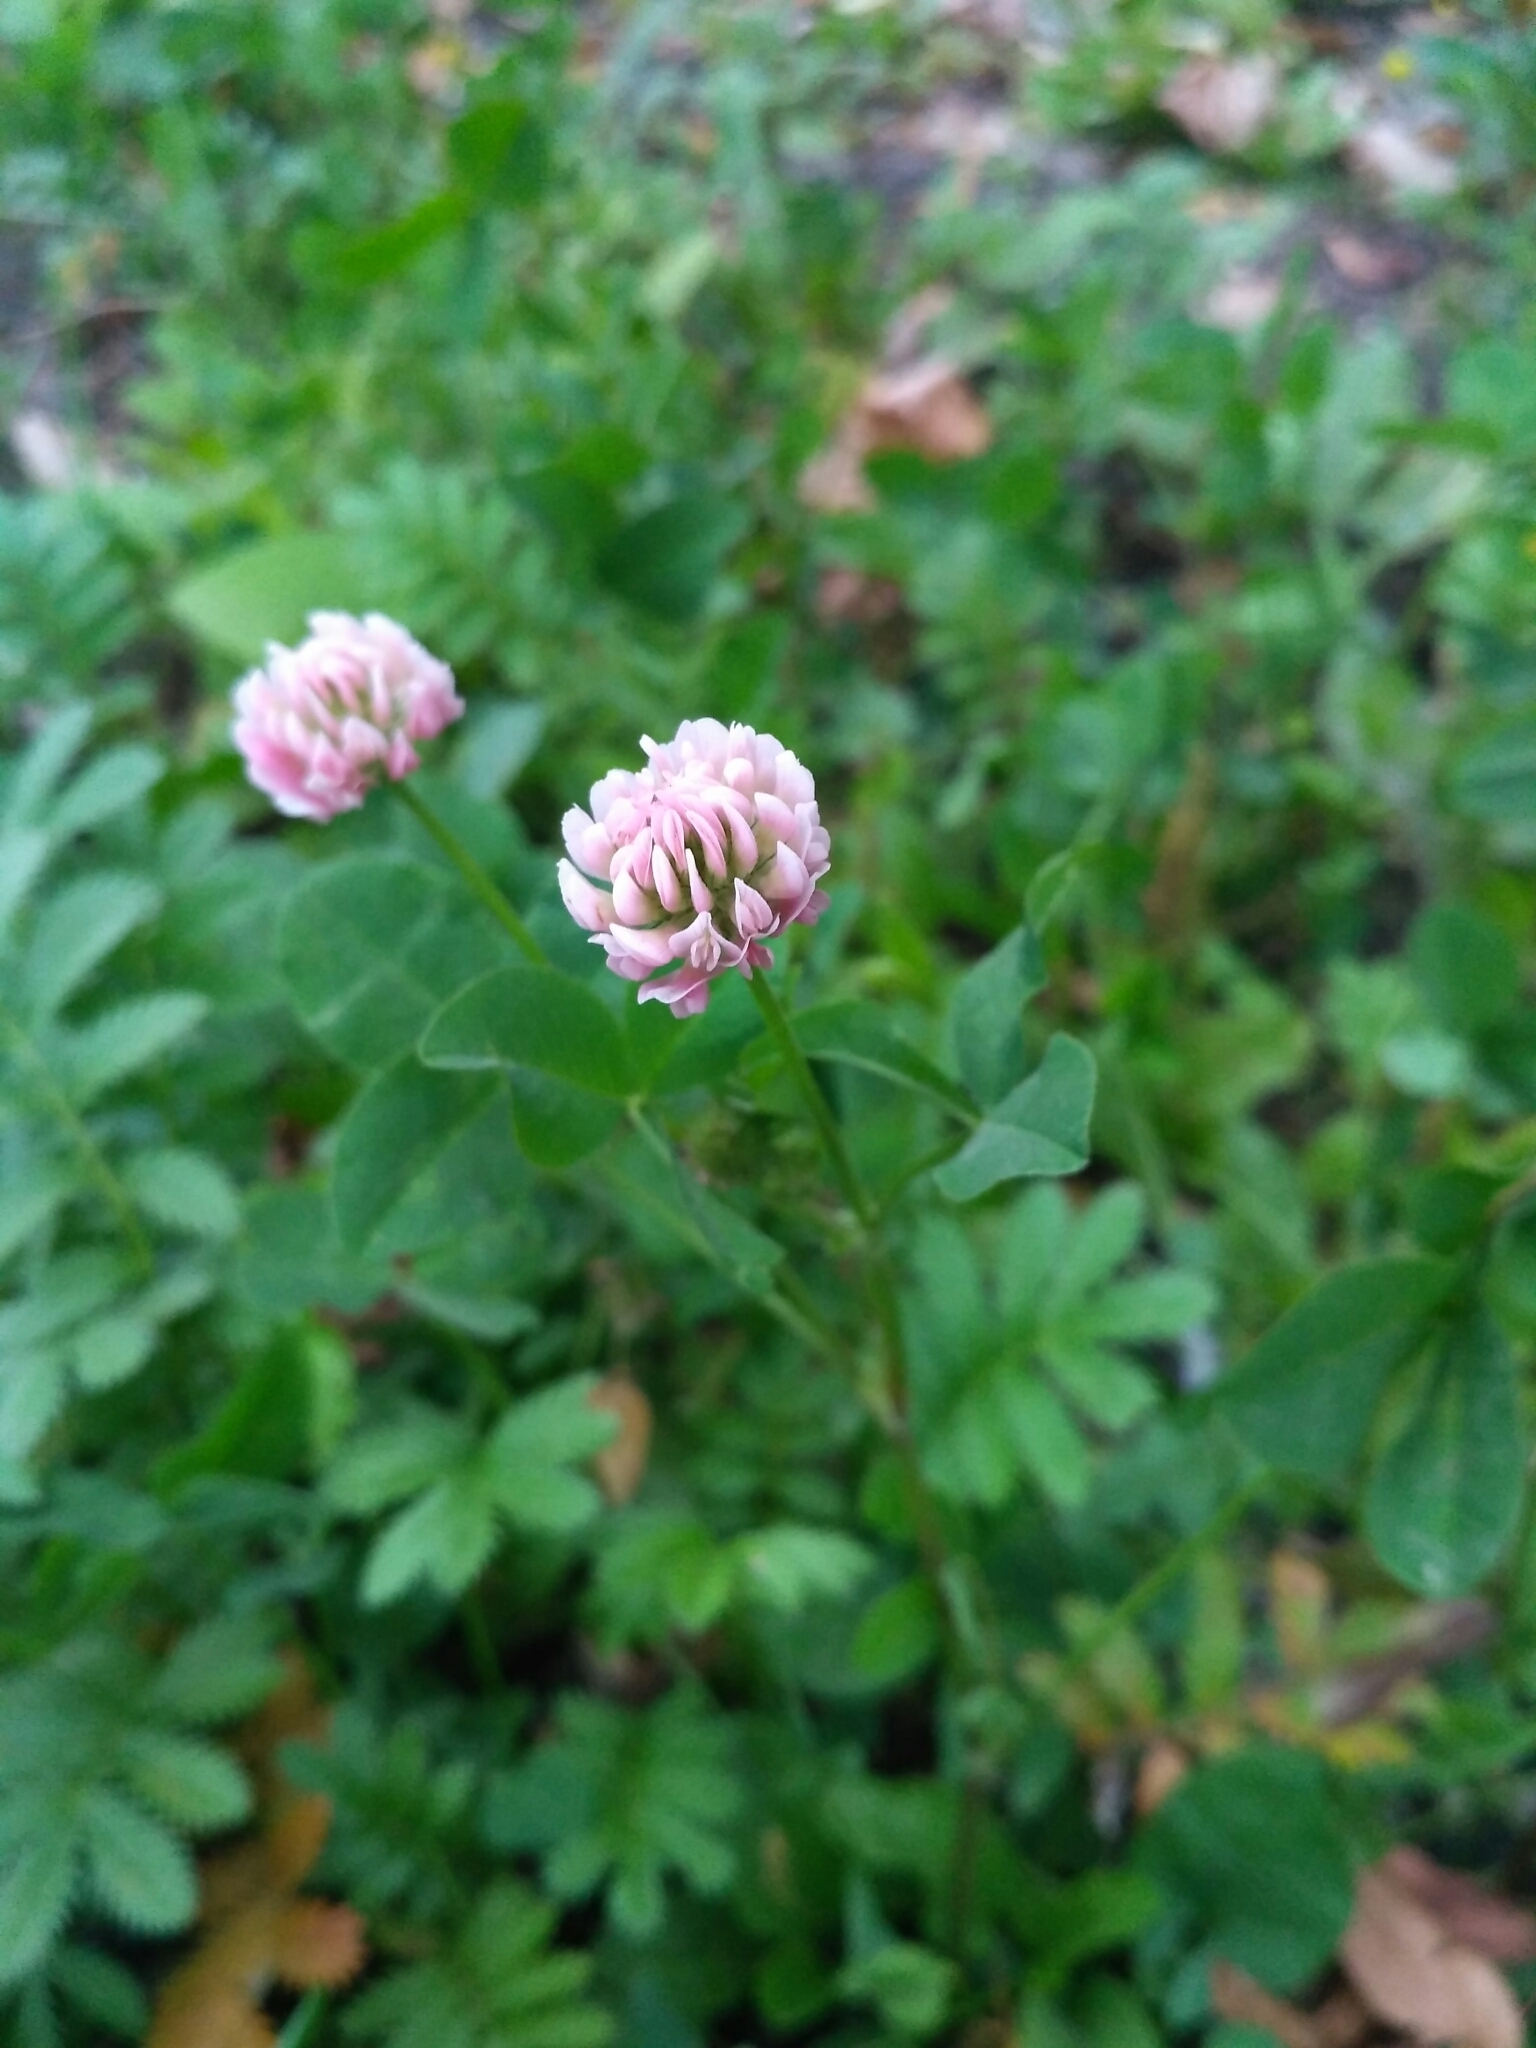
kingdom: Plantae
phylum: Tracheophyta
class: Magnoliopsida
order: Fabales
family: Fabaceae
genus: Trifolium
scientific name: Trifolium hybridum
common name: Alsike clover
